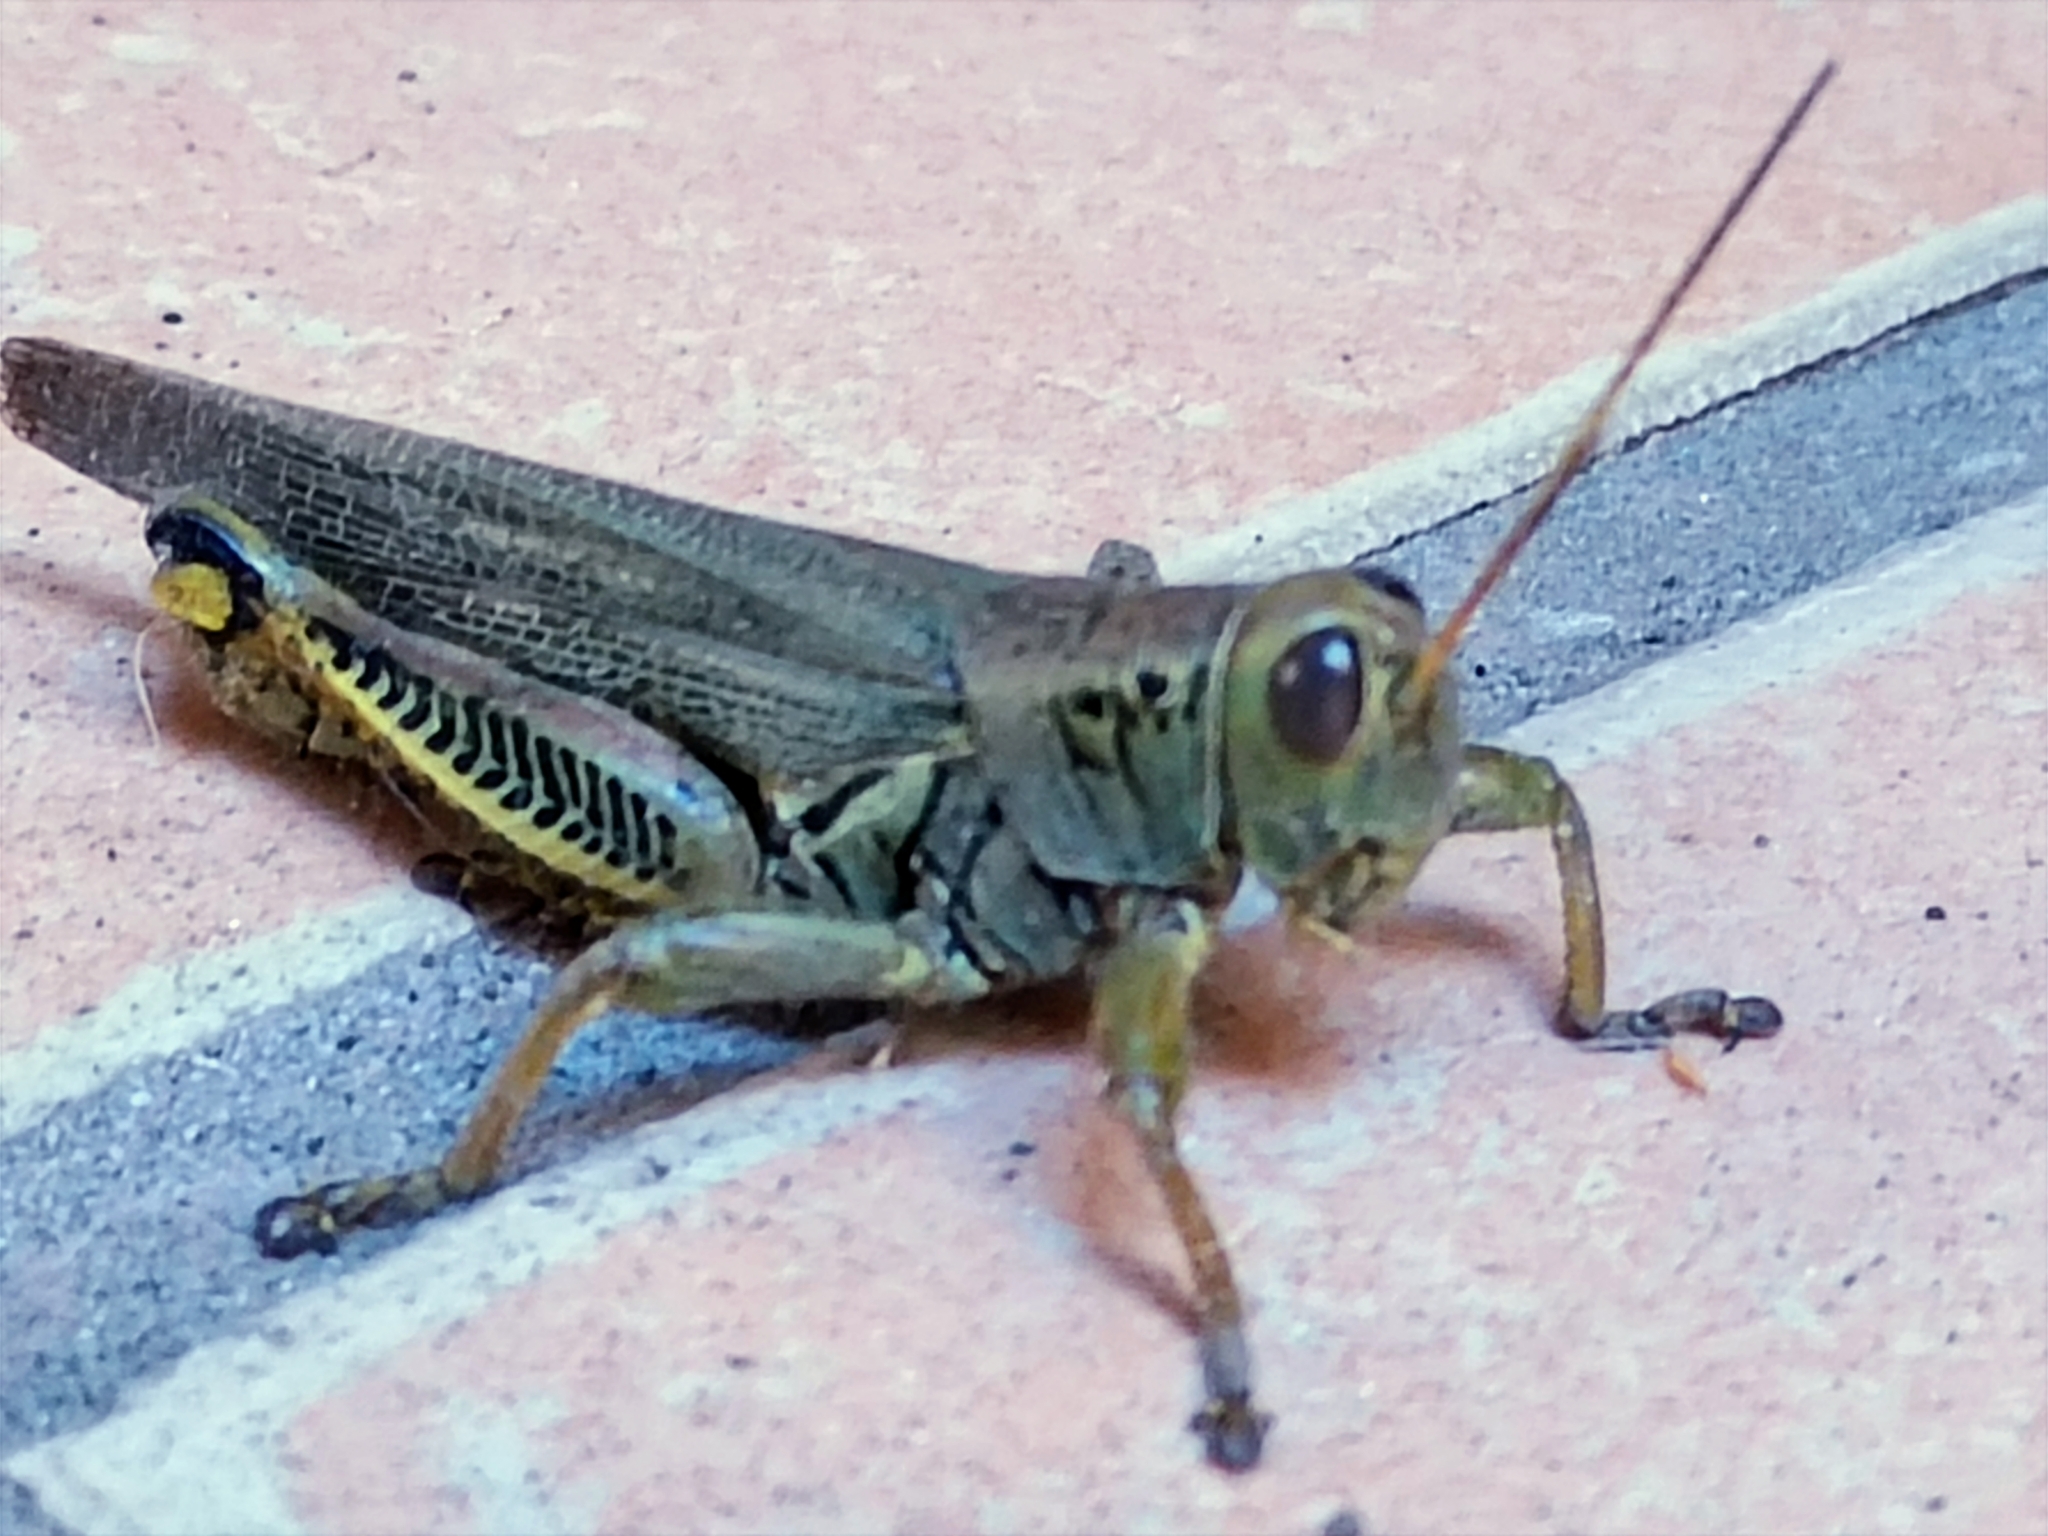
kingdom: Animalia
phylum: Arthropoda
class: Insecta
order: Orthoptera
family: Acrididae
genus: Melanoplus
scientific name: Melanoplus differentialis
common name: Differential grasshopper
